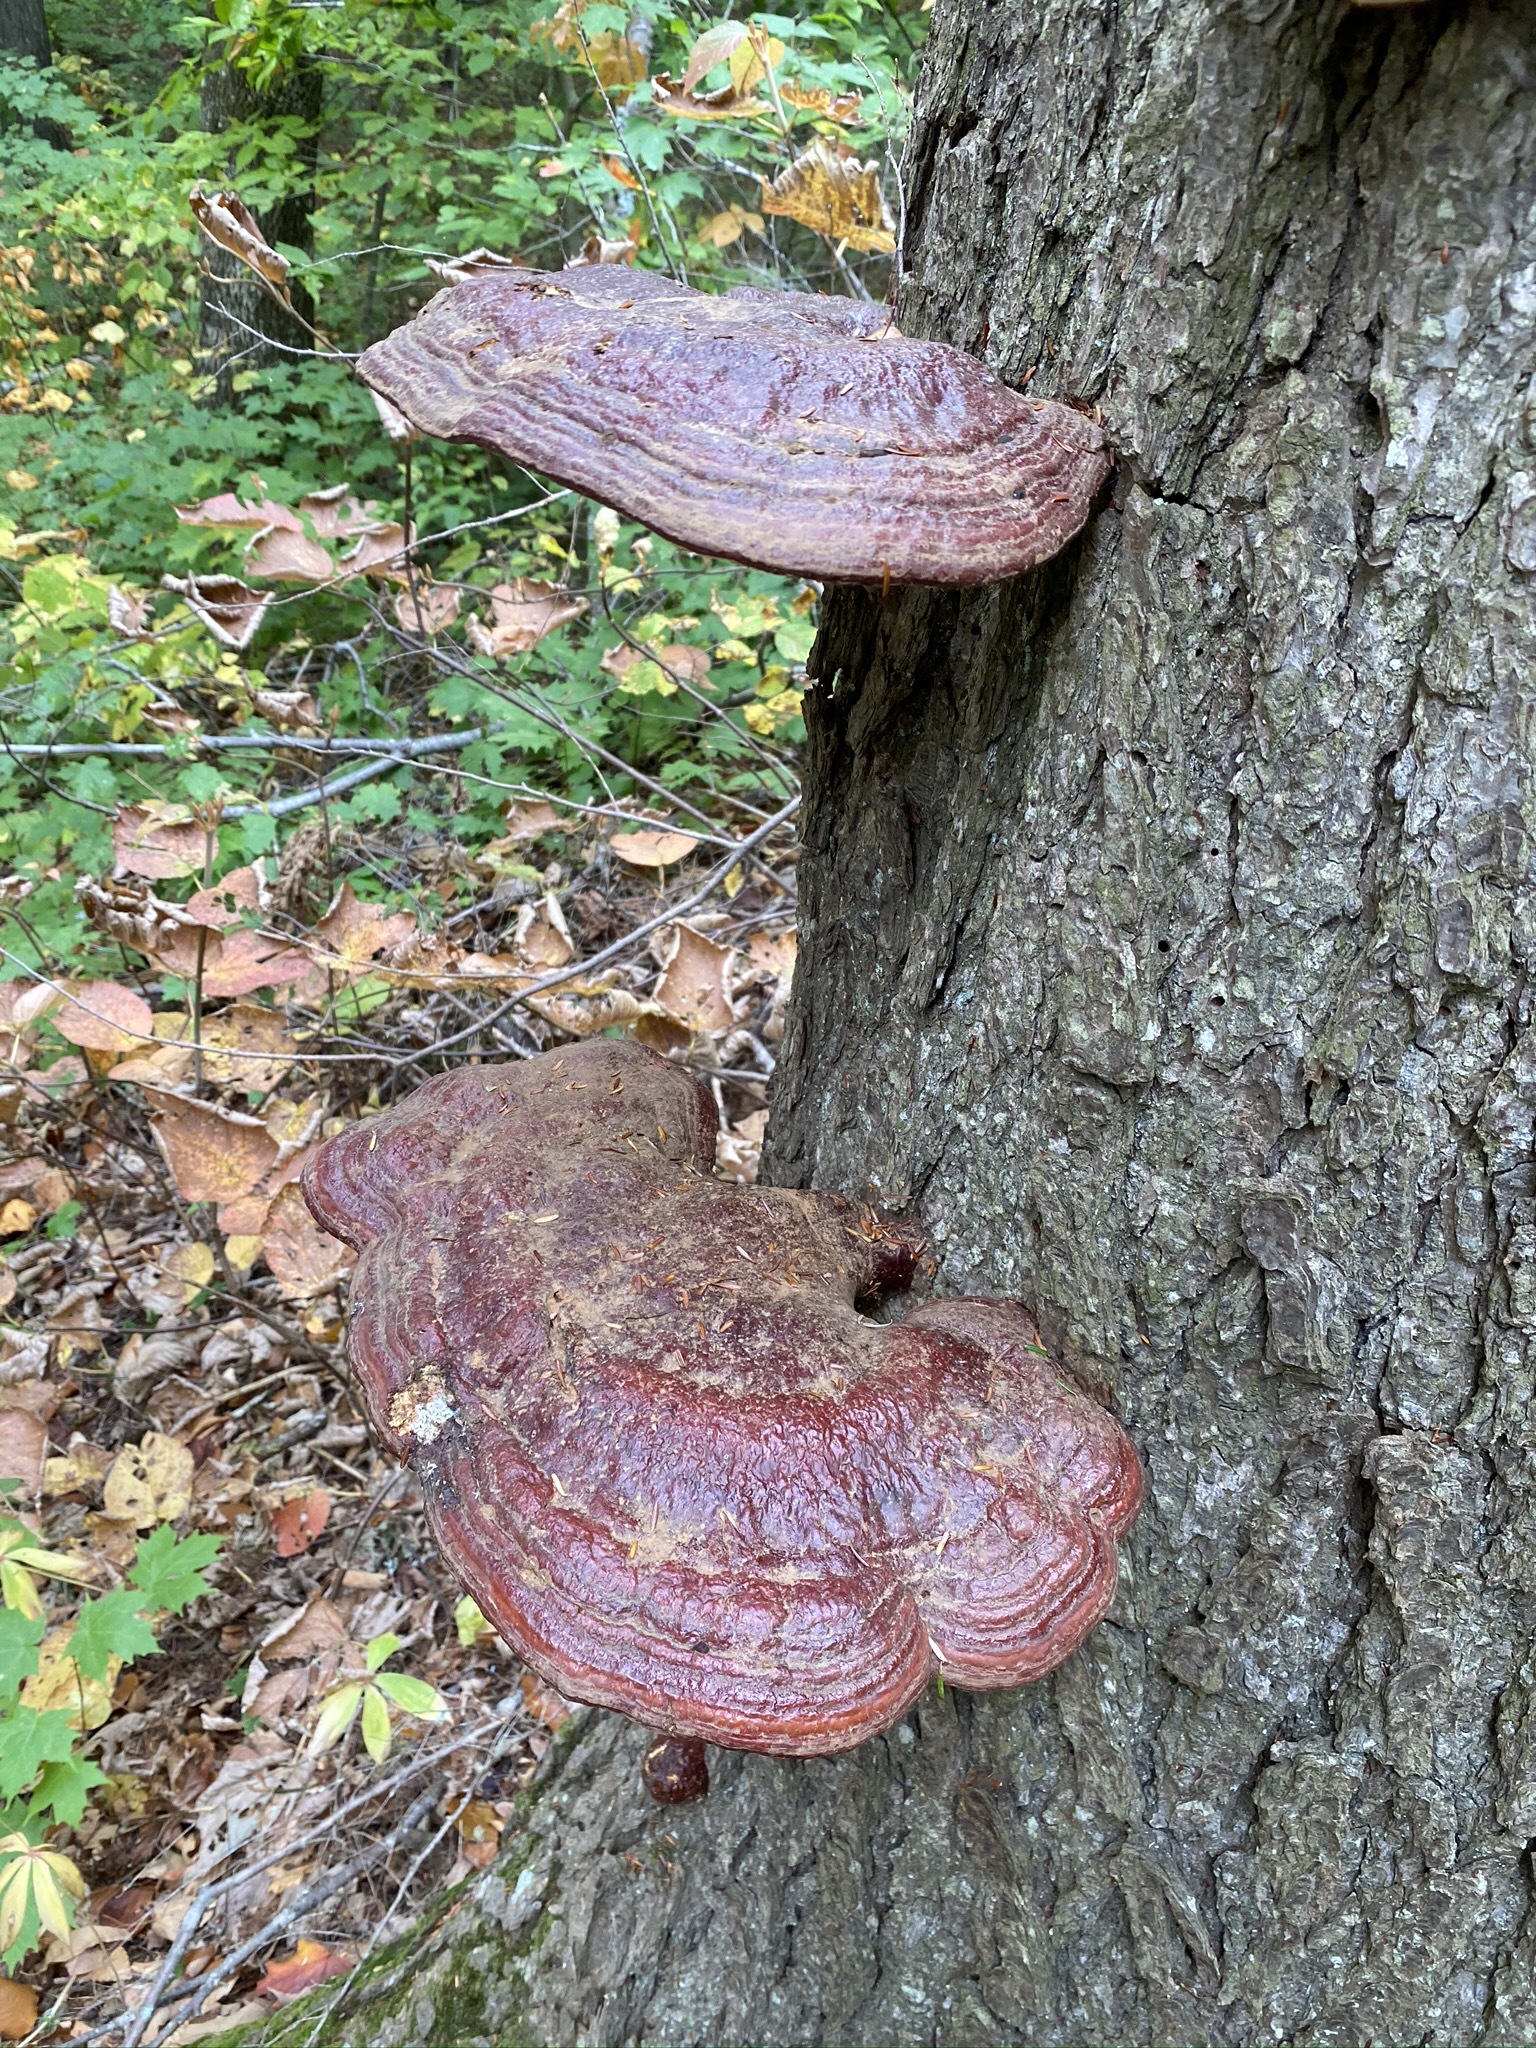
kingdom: Fungi
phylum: Basidiomycota
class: Agaricomycetes
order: Polyporales
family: Polyporaceae
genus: Ganoderma
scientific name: Ganoderma tsugae
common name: Hemlock varnish shelf
